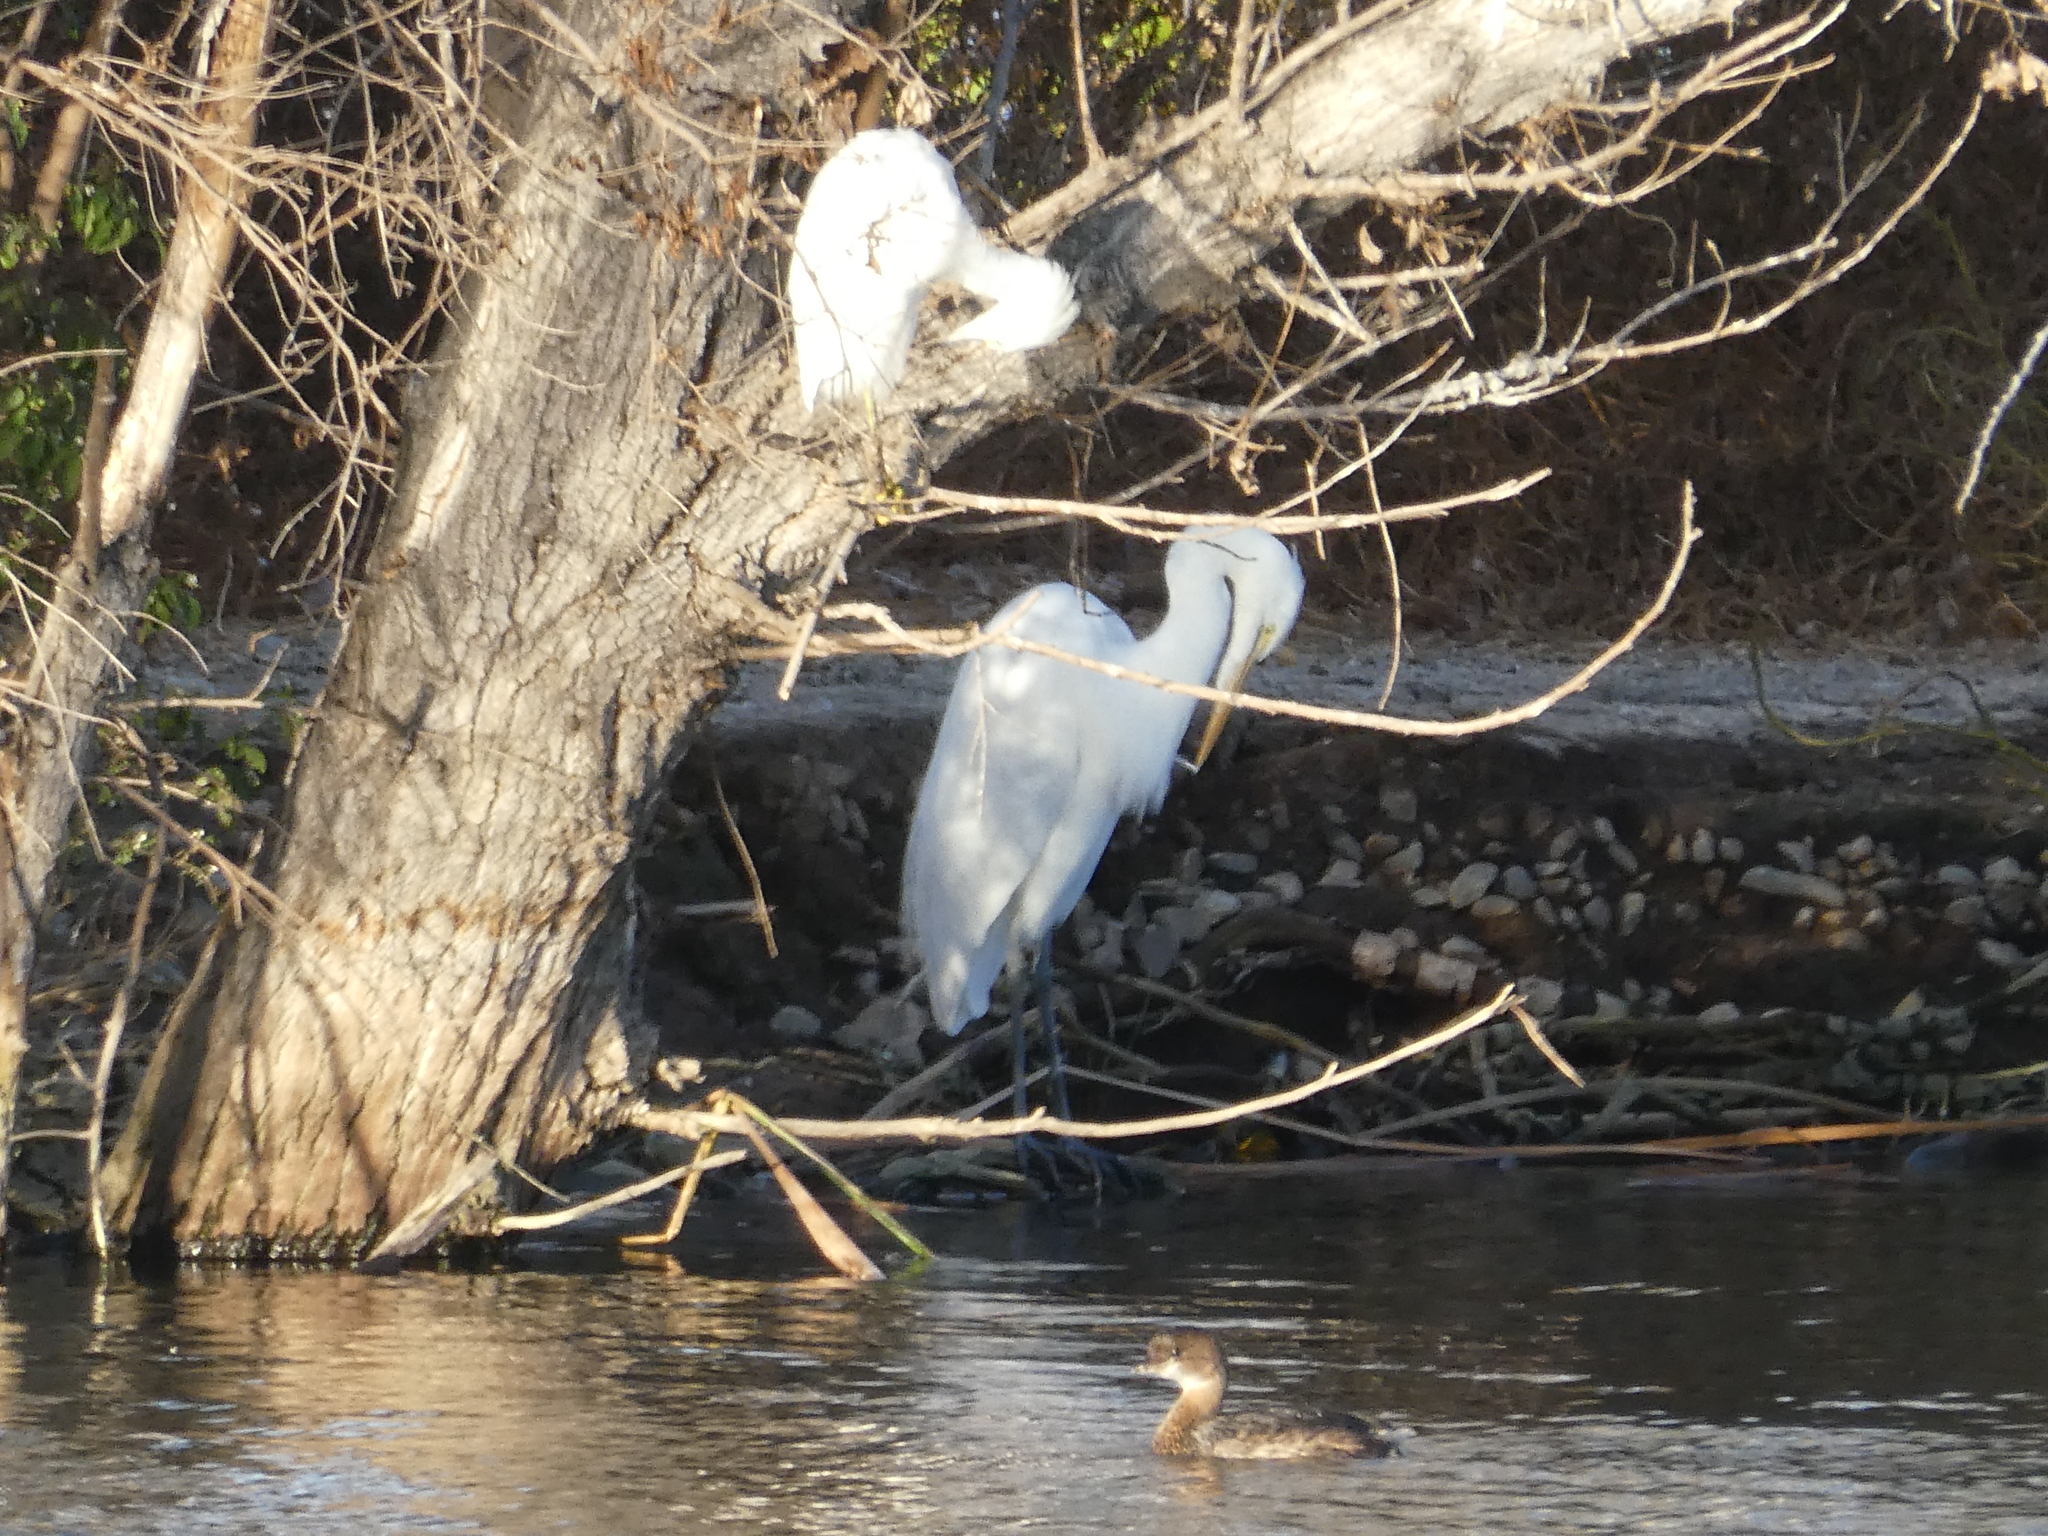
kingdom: Animalia
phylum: Chordata
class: Aves
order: Pelecaniformes
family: Ardeidae
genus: Ardea
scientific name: Ardea alba
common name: Great egret
